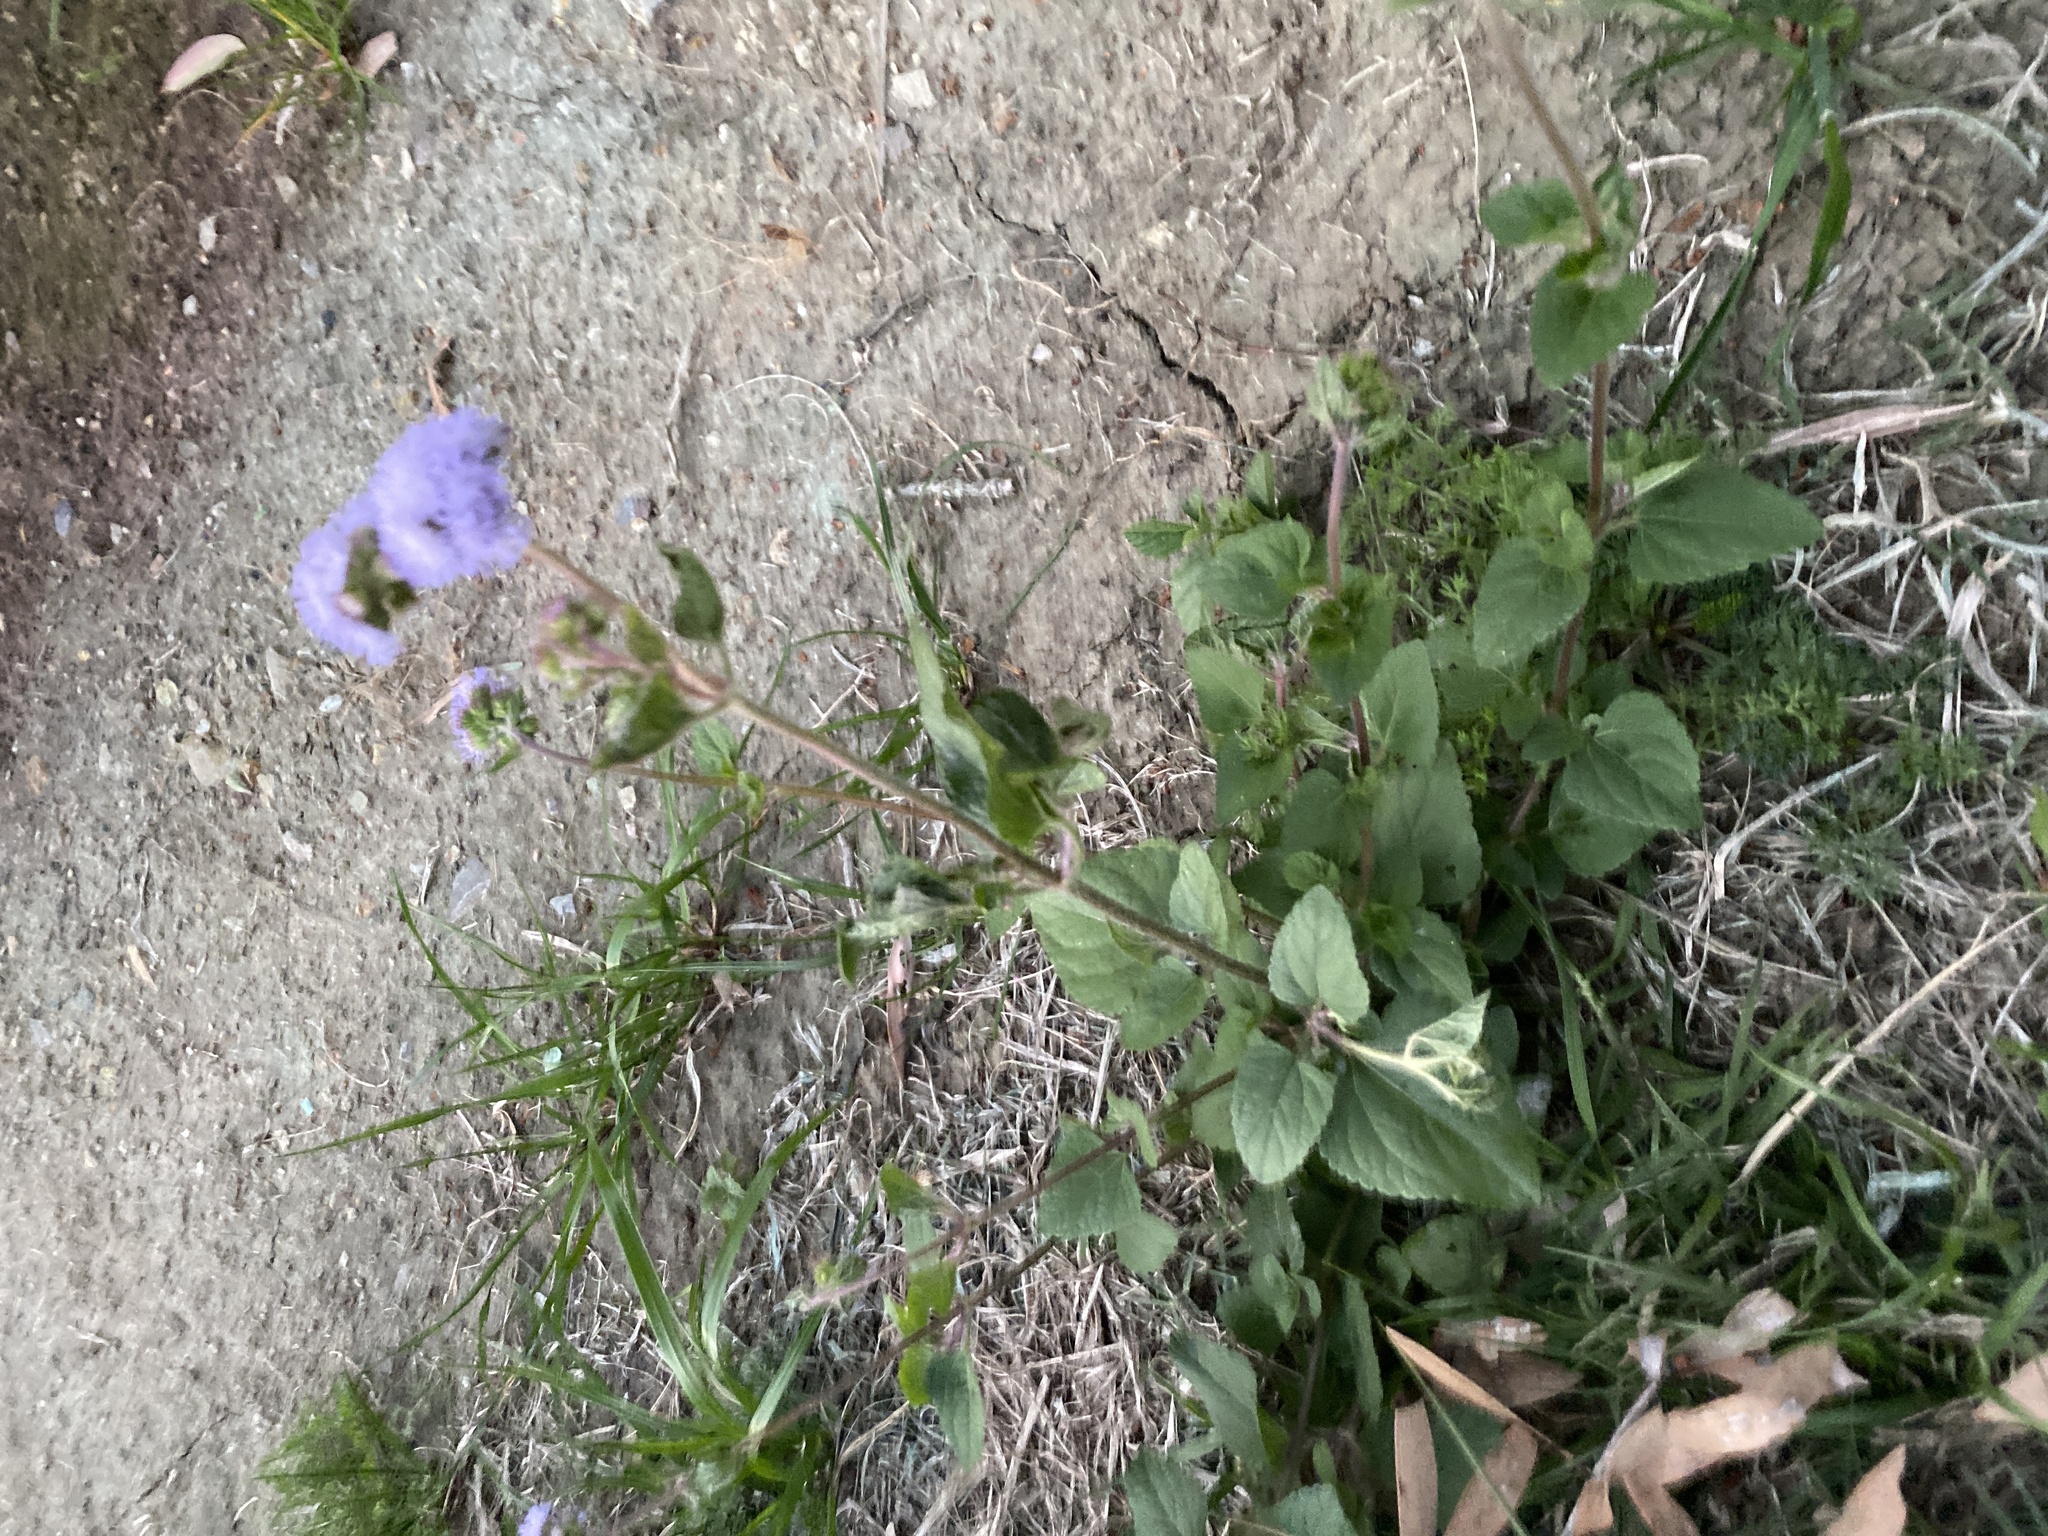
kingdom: Plantae
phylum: Tracheophyta
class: Magnoliopsida
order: Asterales
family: Asteraceae
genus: Ageratum
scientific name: Ageratum houstonianum
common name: Bluemink
